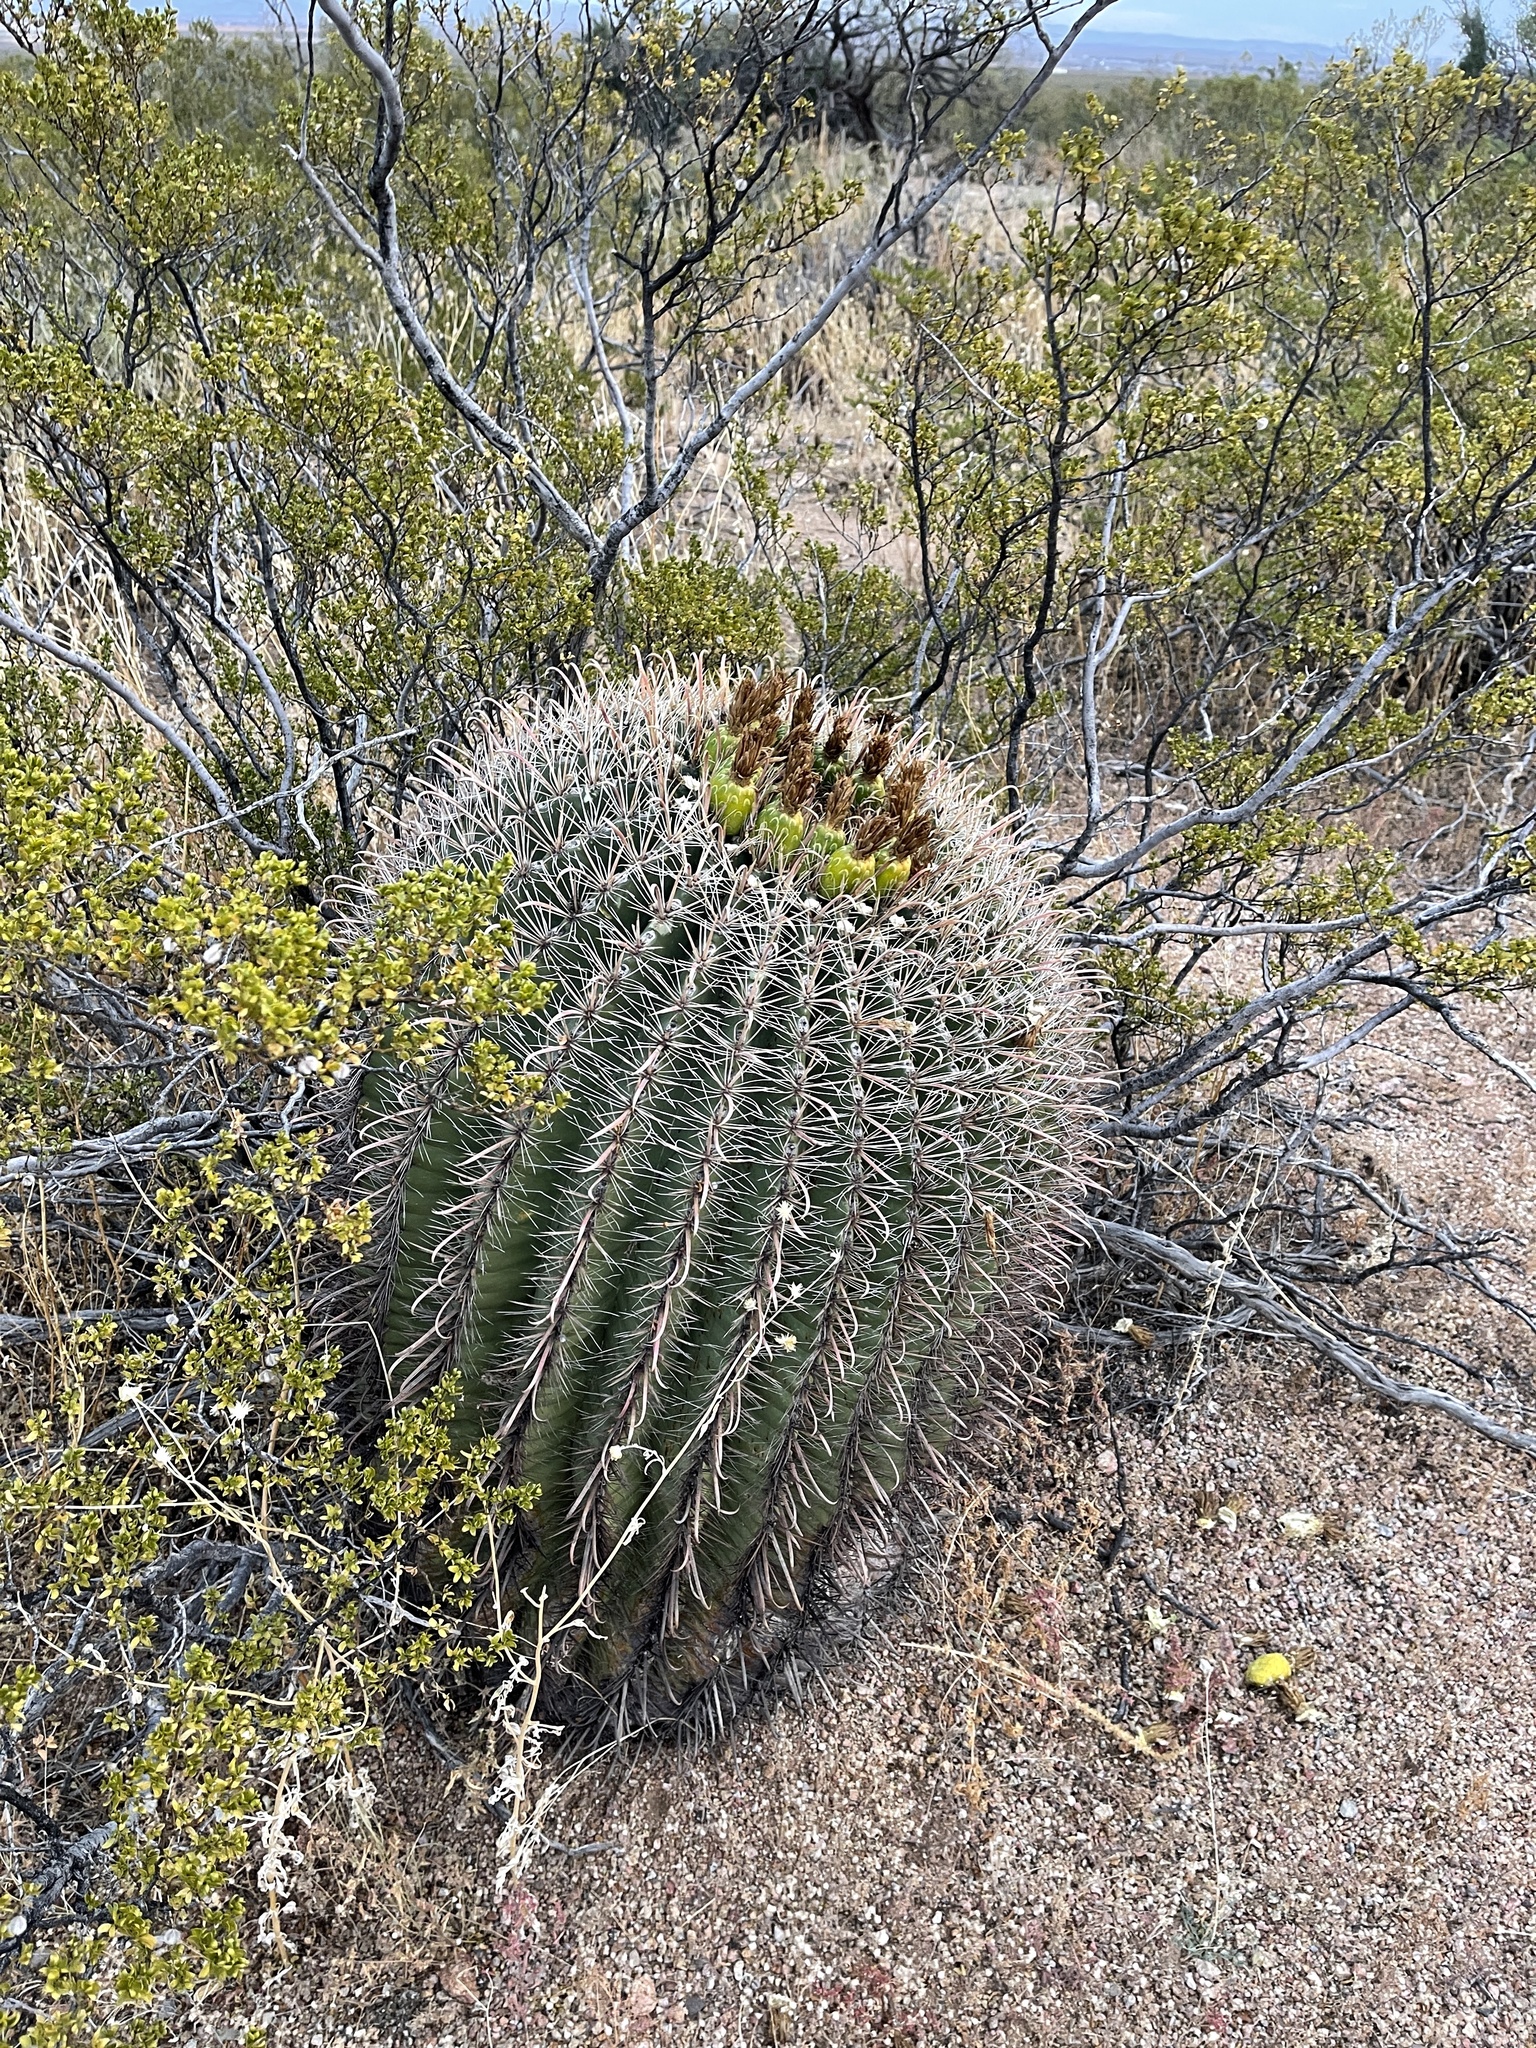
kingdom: Plantae
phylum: Tracheophyta
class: Magnoliopsida
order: Caryophyllales
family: Cactaceae
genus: Ferocactus
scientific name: Ferocactus wislizeni
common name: Candy barrel cactus
